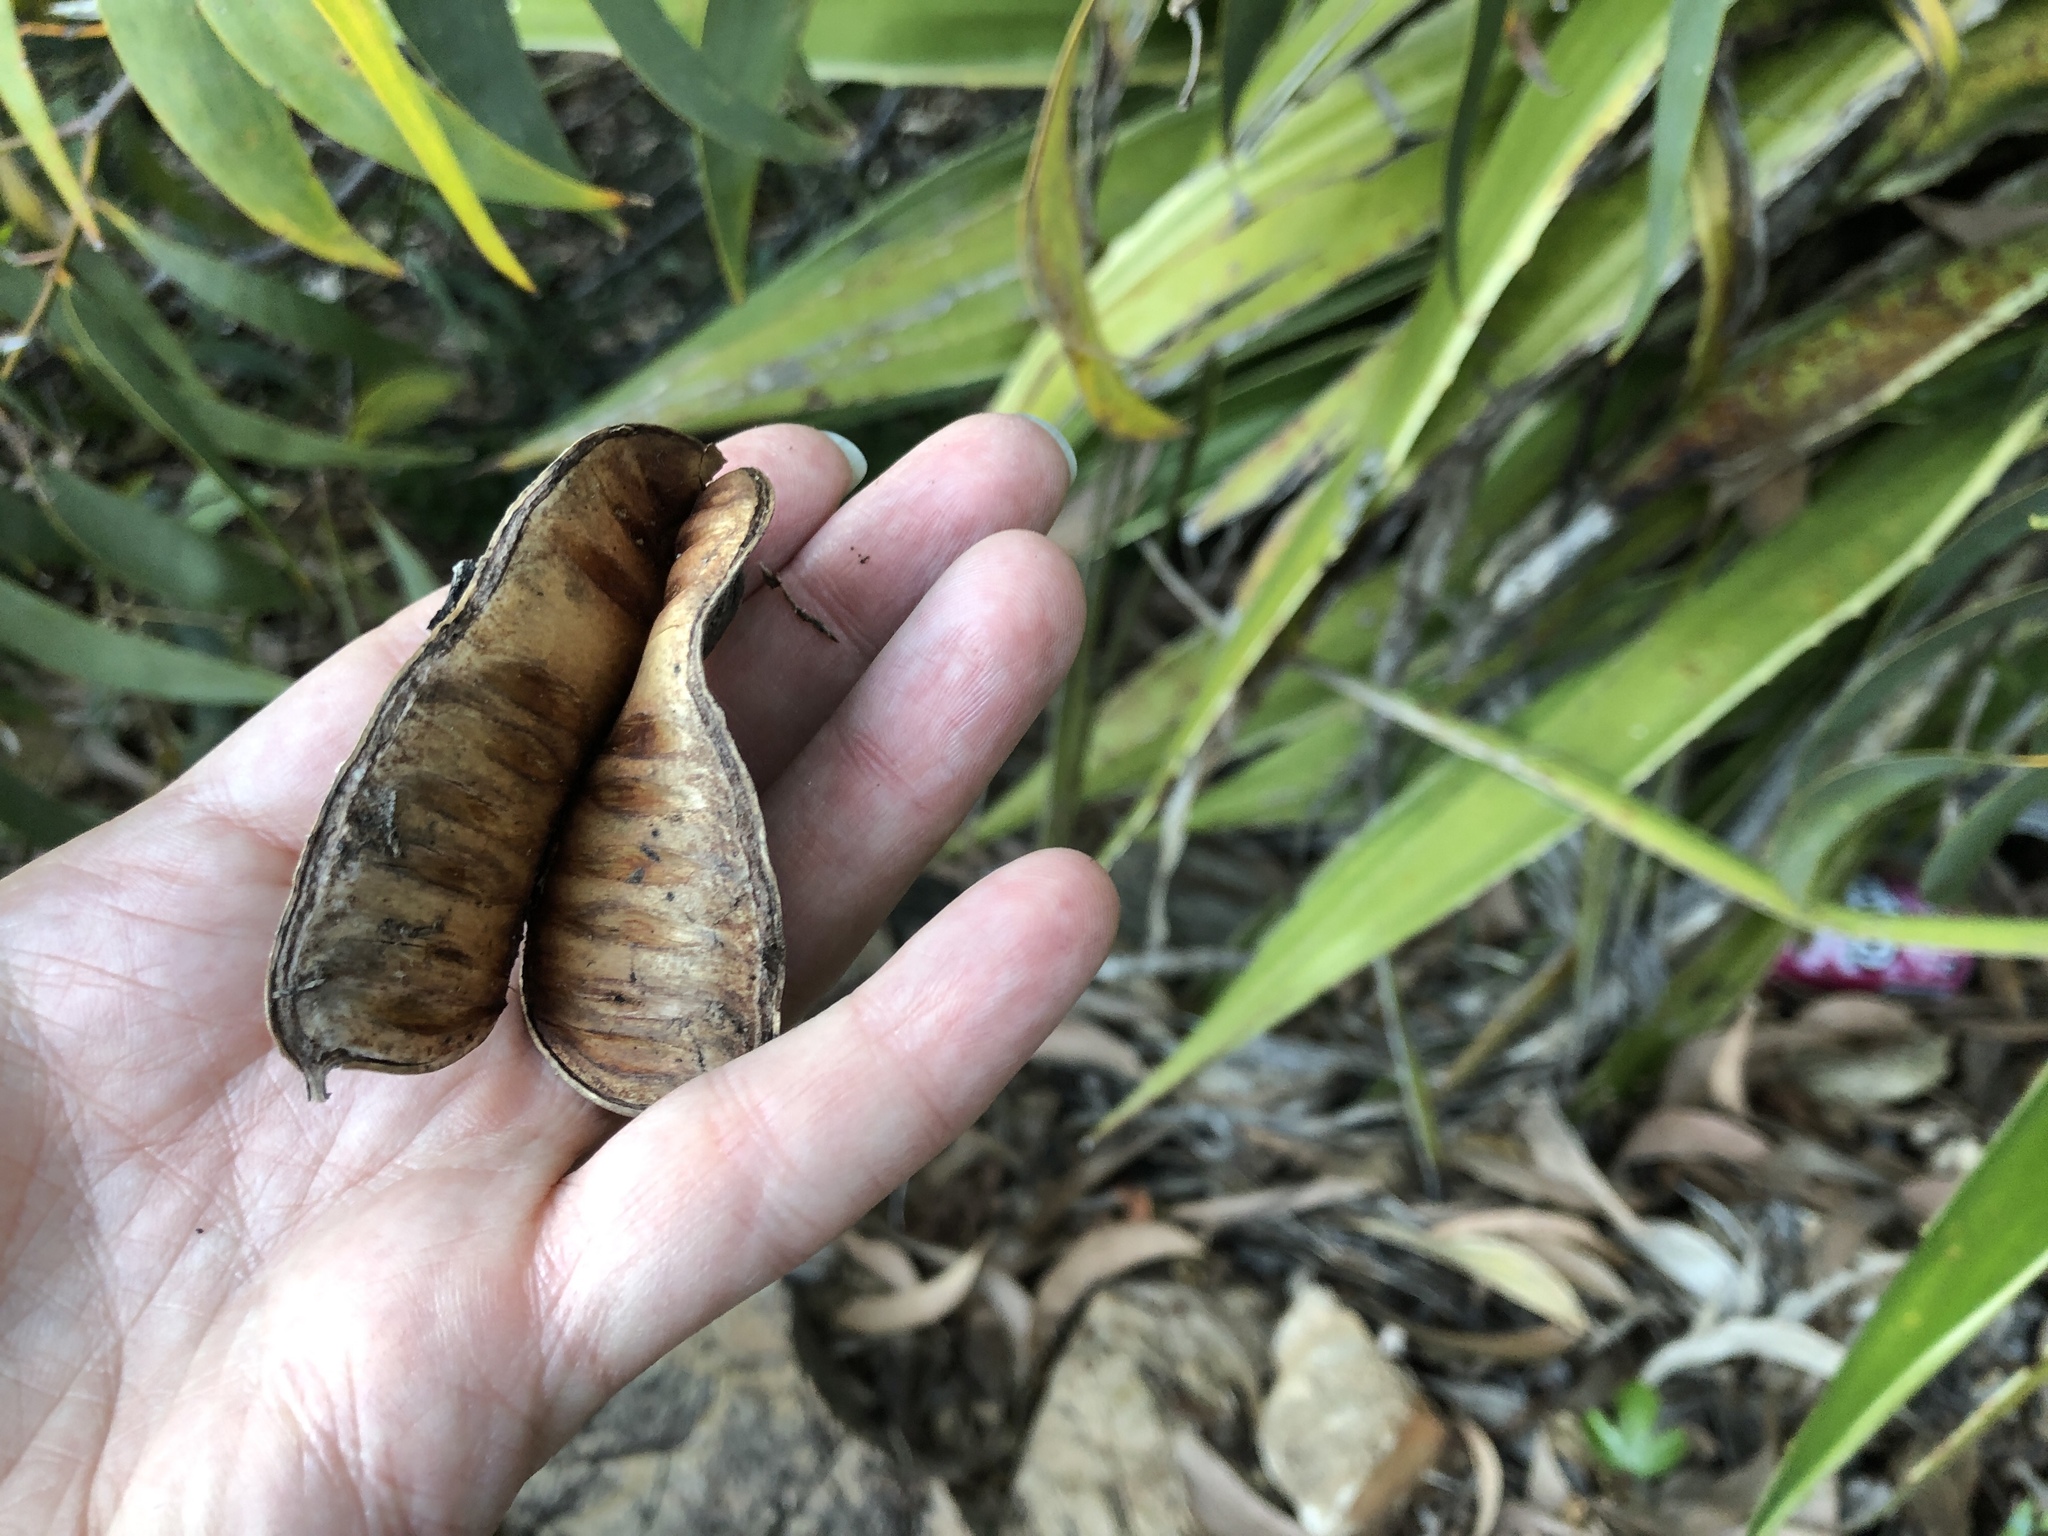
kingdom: Plantae
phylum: Tracheophyta
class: Magnoliopsida
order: Fabales
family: Fabaceae
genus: Acacia
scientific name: Acacia crassicarpa
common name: Northern wattle
